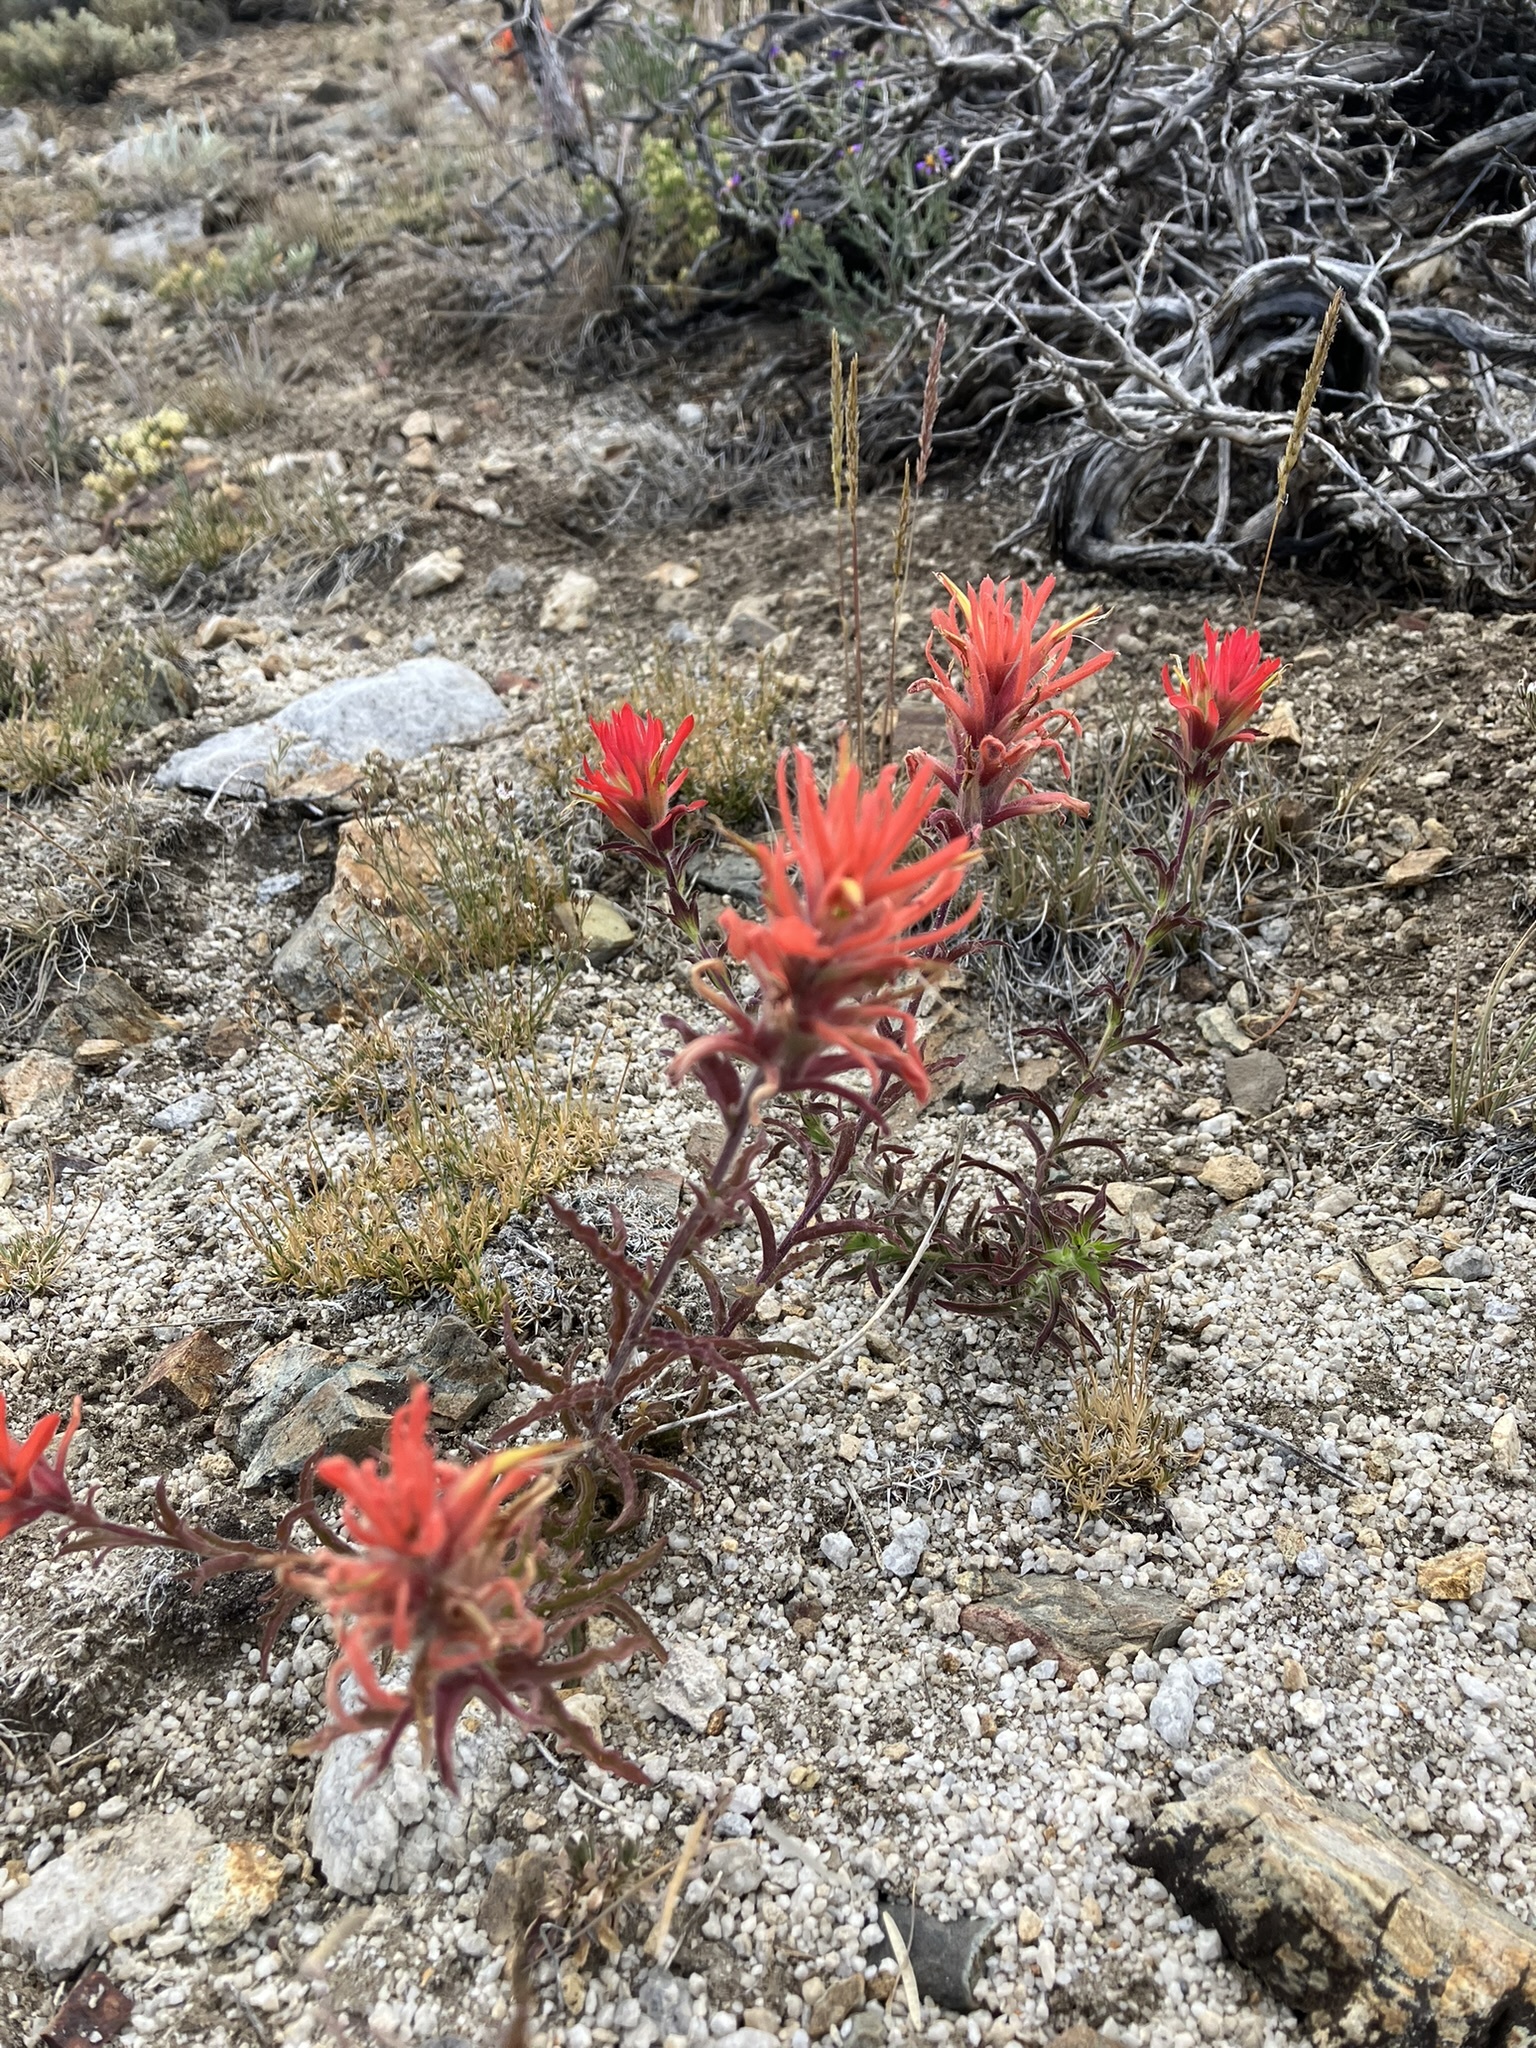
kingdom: Plantae
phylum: Tracheophyta
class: Magnoliopsida
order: Lamiales
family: Orobanchaceae
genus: Castilleja
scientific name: Castilleja applegatei
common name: Wavy-leaf paintbrush
